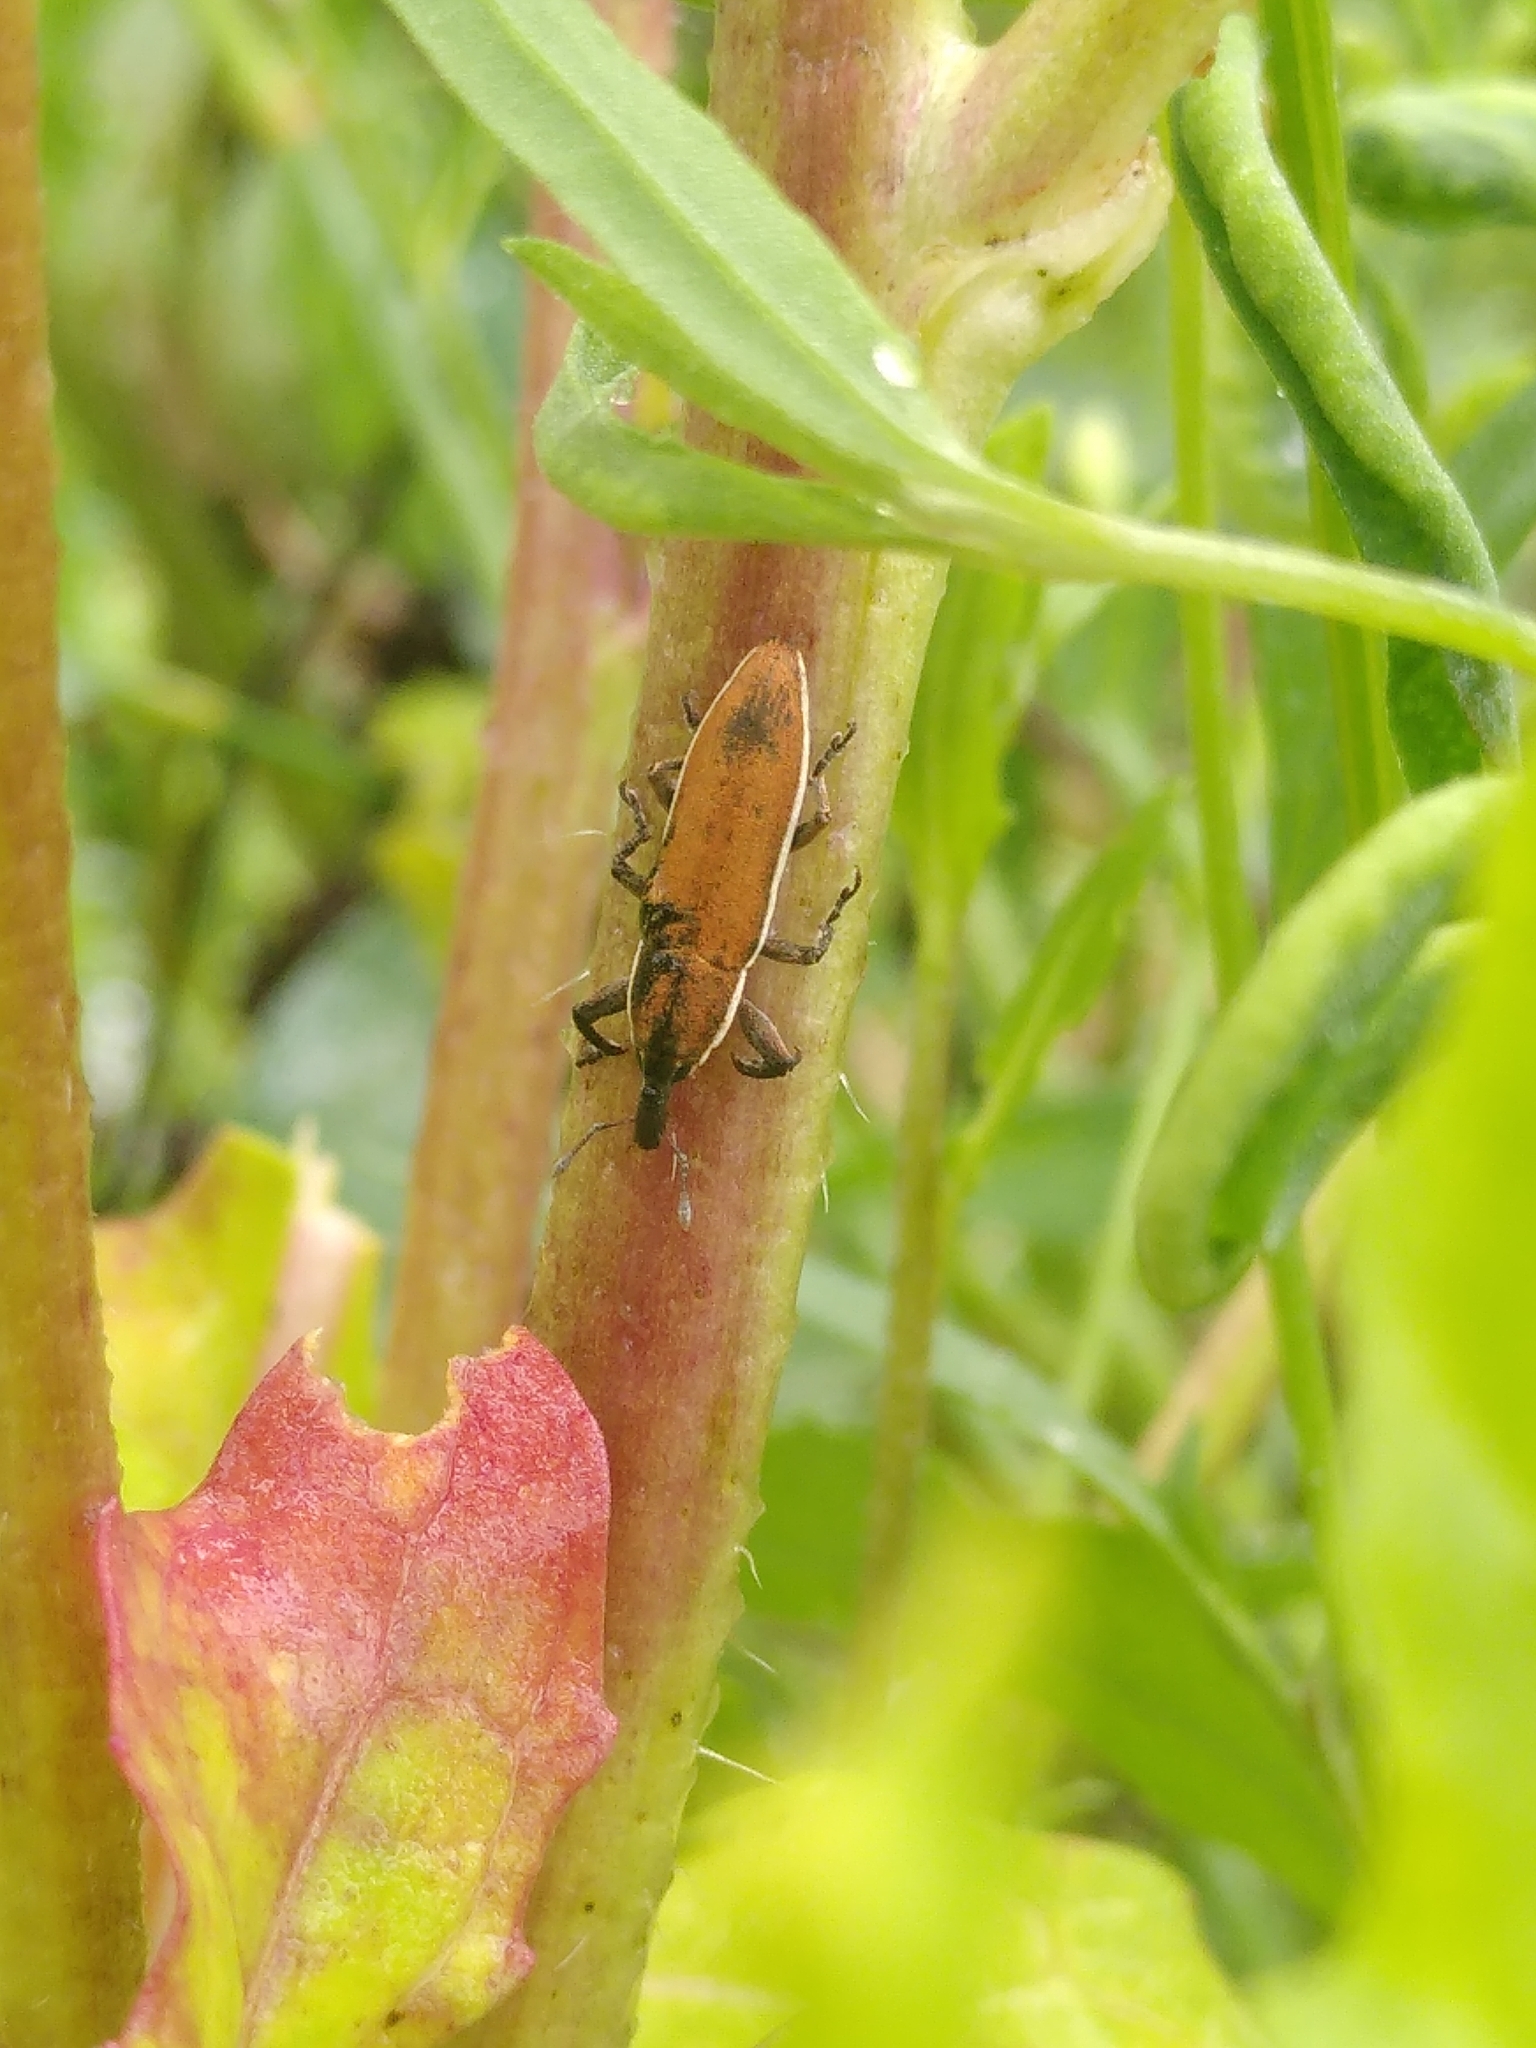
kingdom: Animalia
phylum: Arthropoda
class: Insecta
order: Coleoptera
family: Curculionidae
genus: Lixus
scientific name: Lixus albomarginatus
